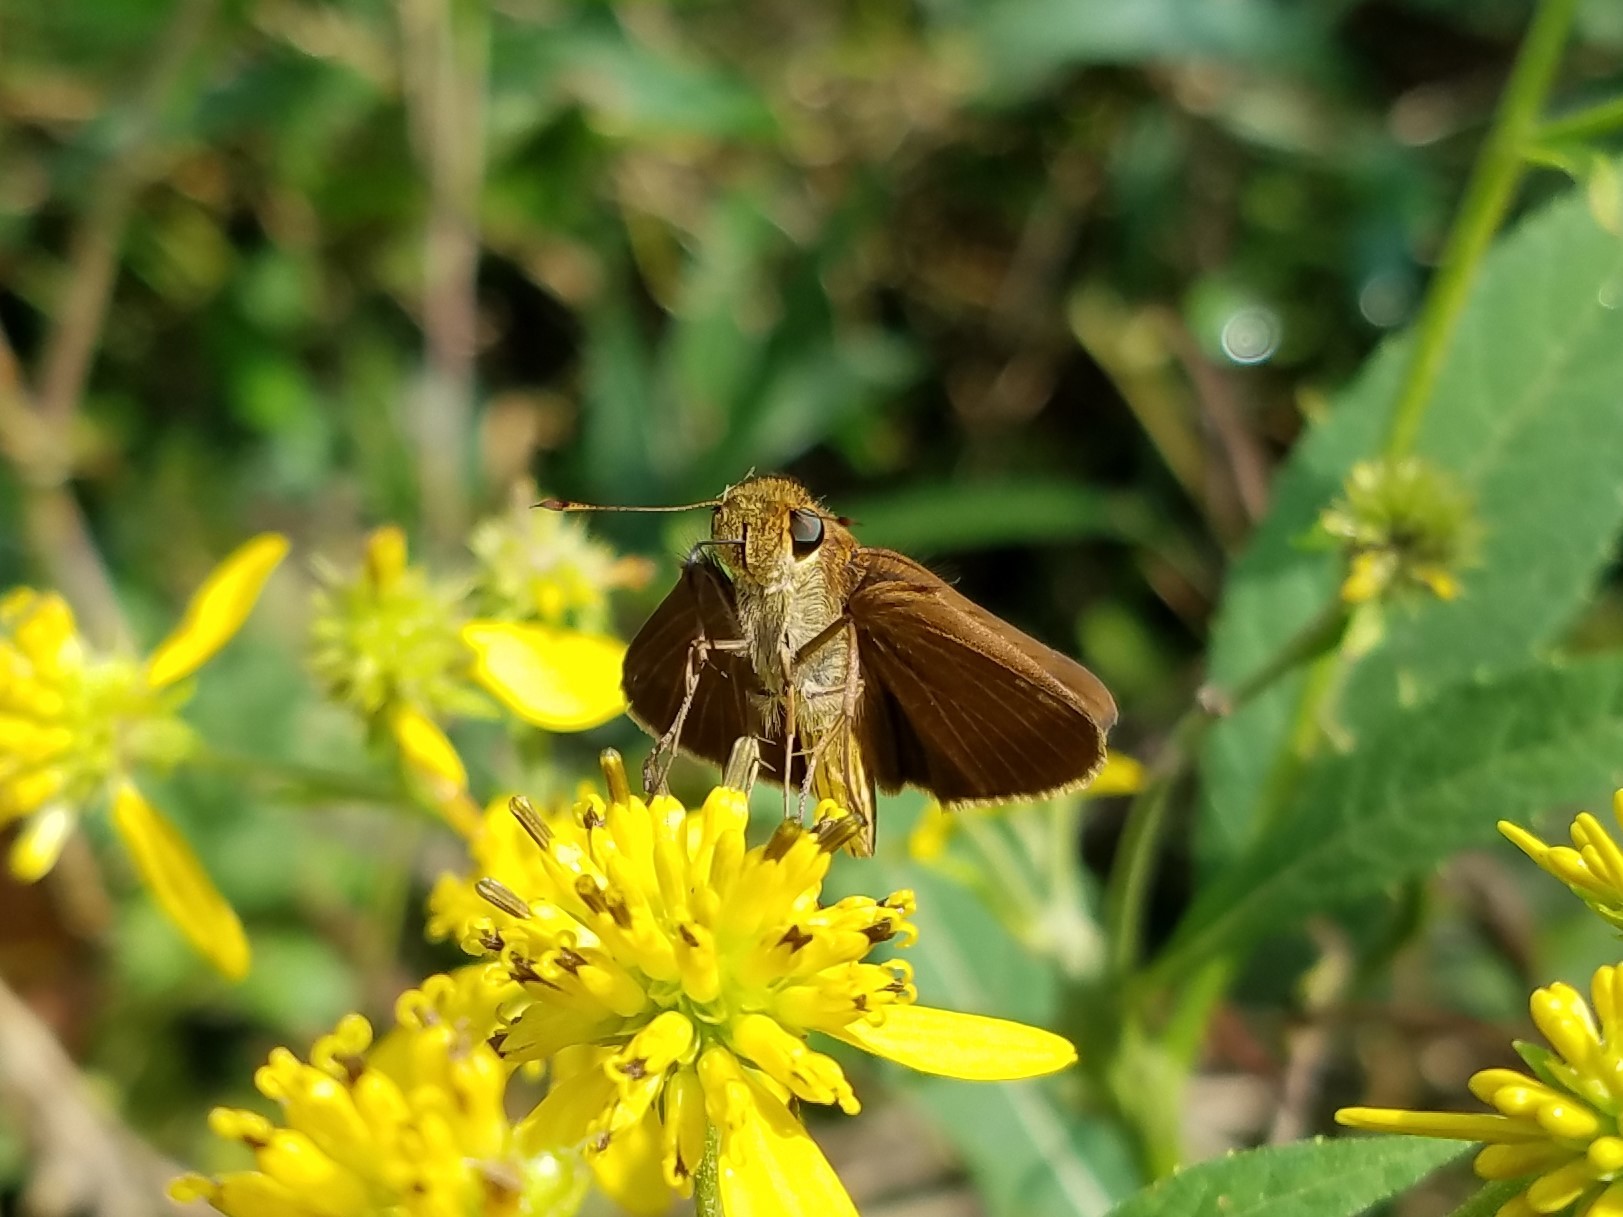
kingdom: Animalia
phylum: Arthropoda
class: Insecta
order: Lepidoptera
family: Hesperiidae
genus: Panoquina
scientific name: Panoquina ocola
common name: Ocola skipper
